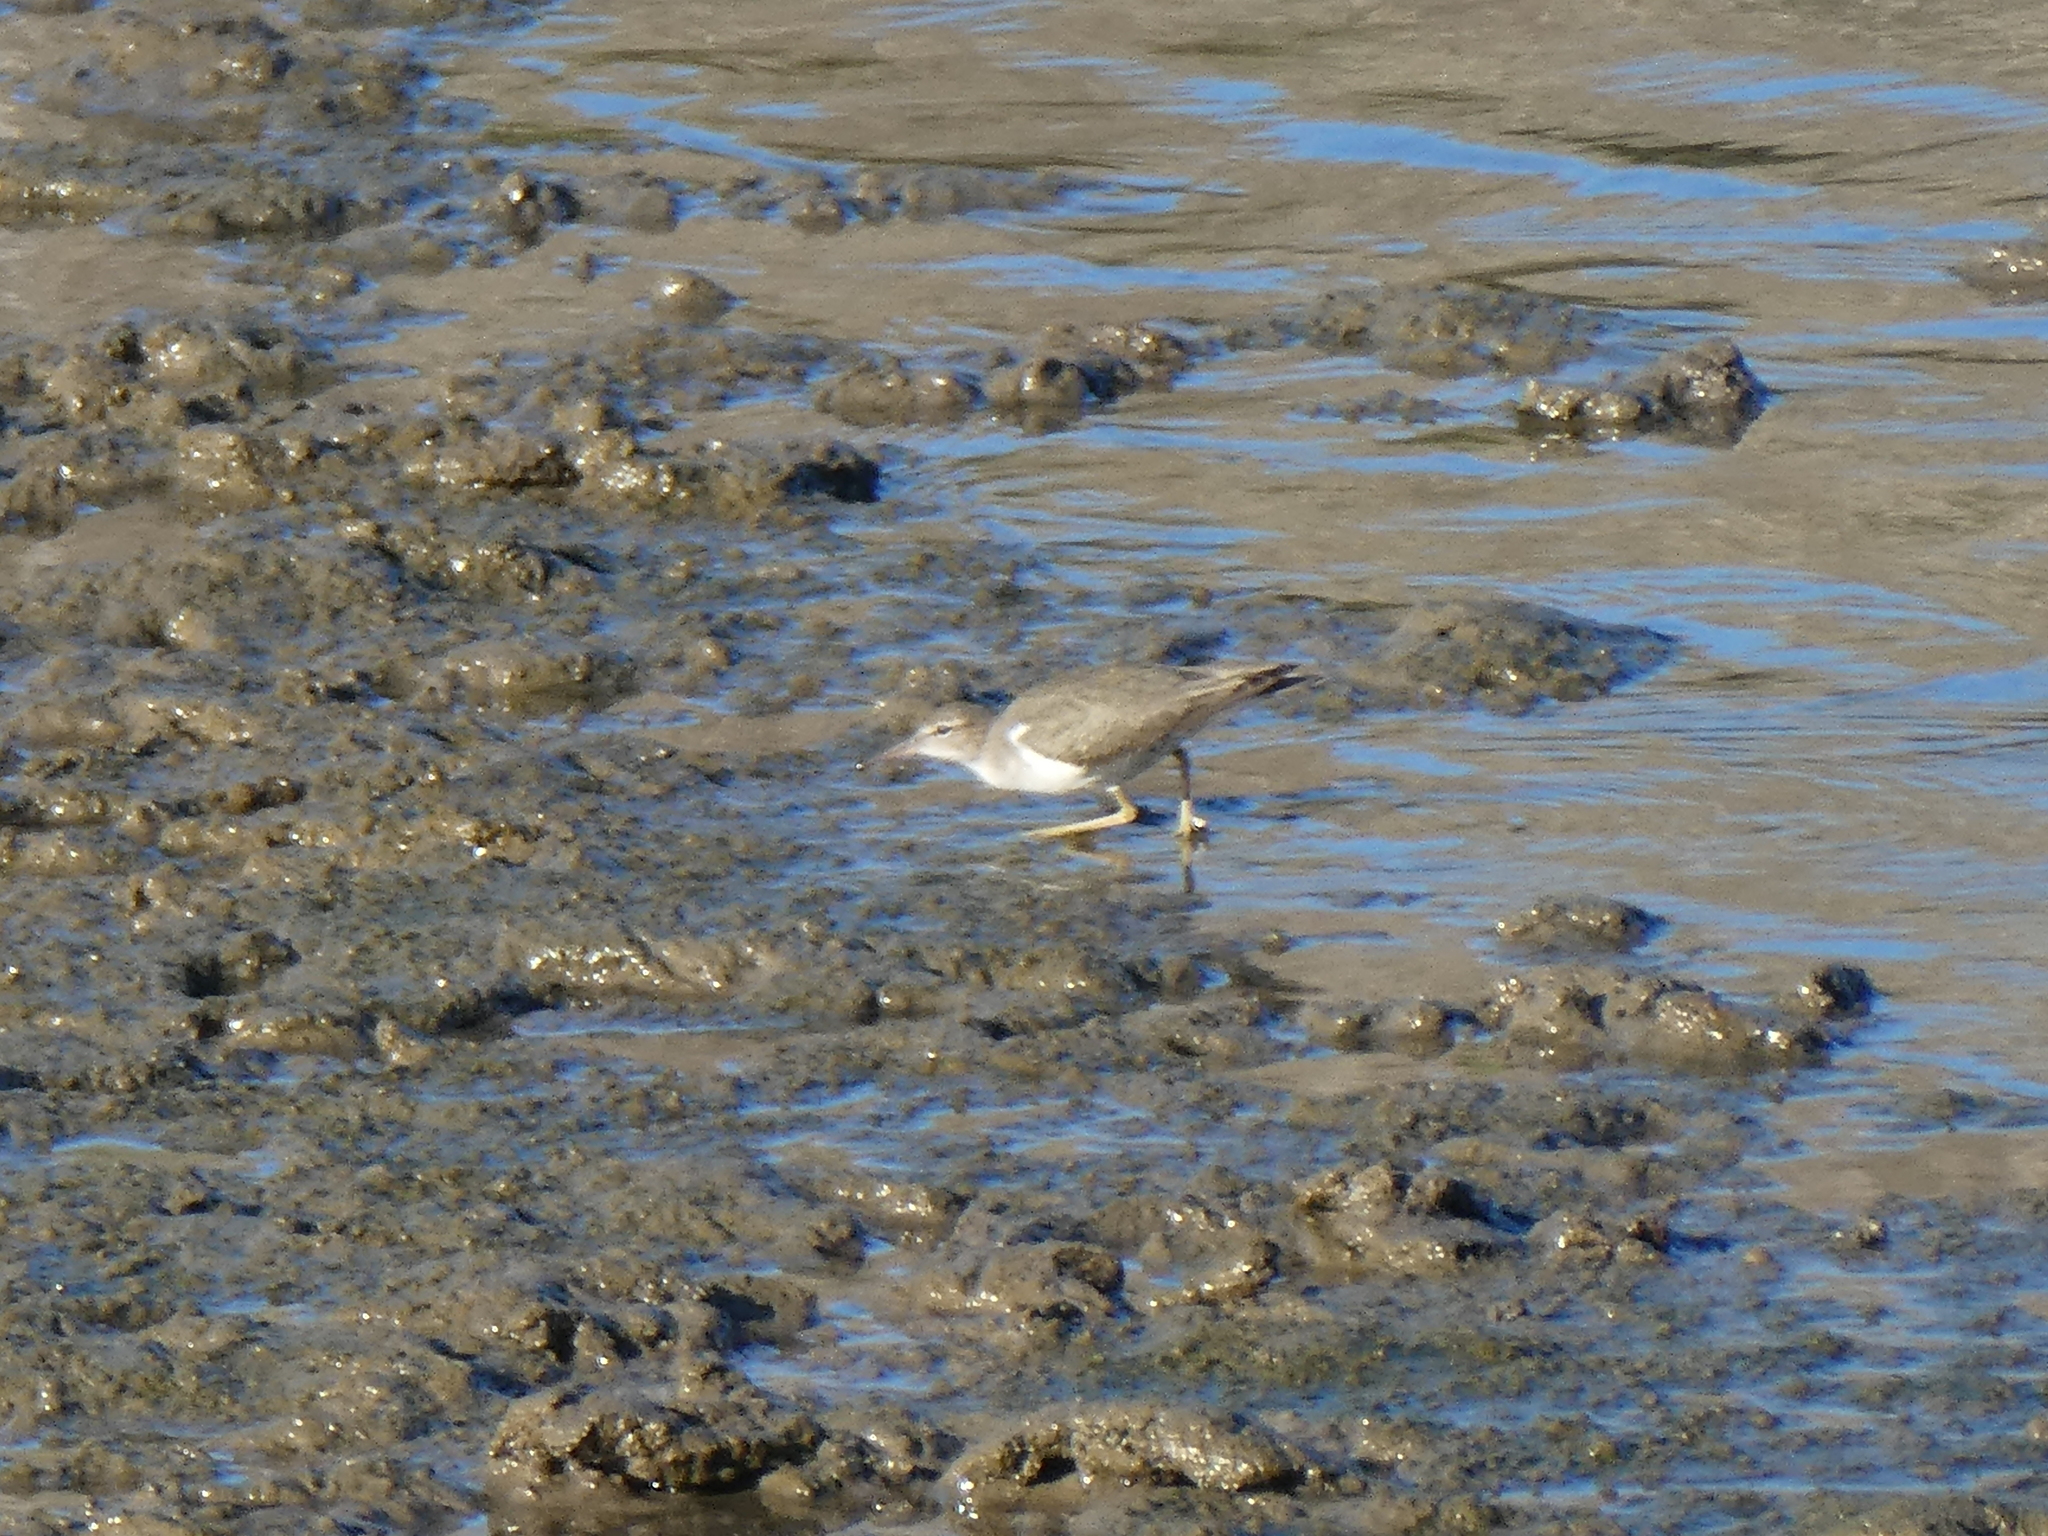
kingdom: Animalia
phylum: Chordata
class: Aves
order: Charadriiformes
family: Scolopacidae
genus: Actitis
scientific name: Actitis macularius
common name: Spotted sandpiper
